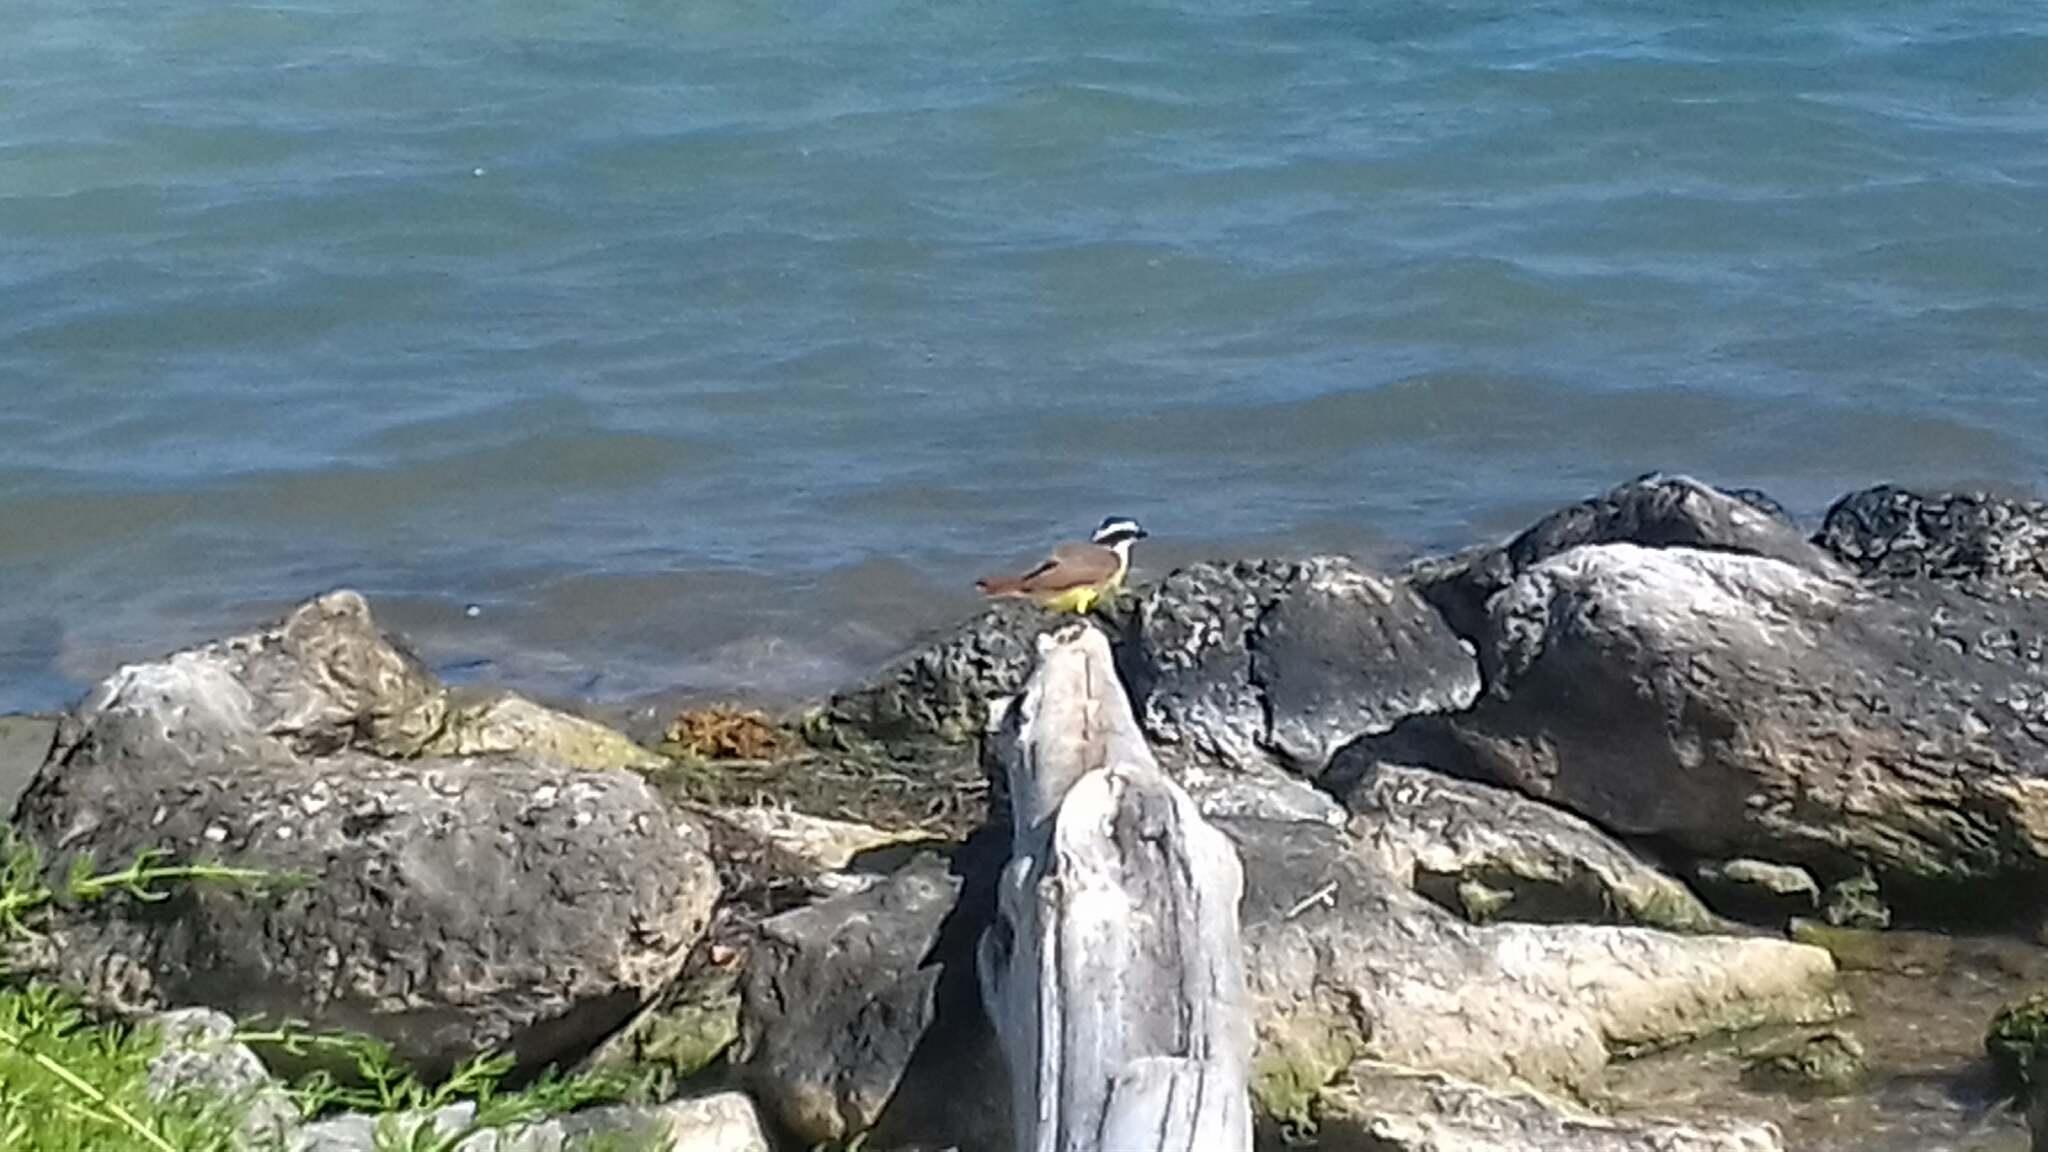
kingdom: Animalia
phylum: Chordata
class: Aves
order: Passeriformes
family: Tyrannidae
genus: Pitangus
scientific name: Pitangus sulphuratus
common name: Great kiskadee
